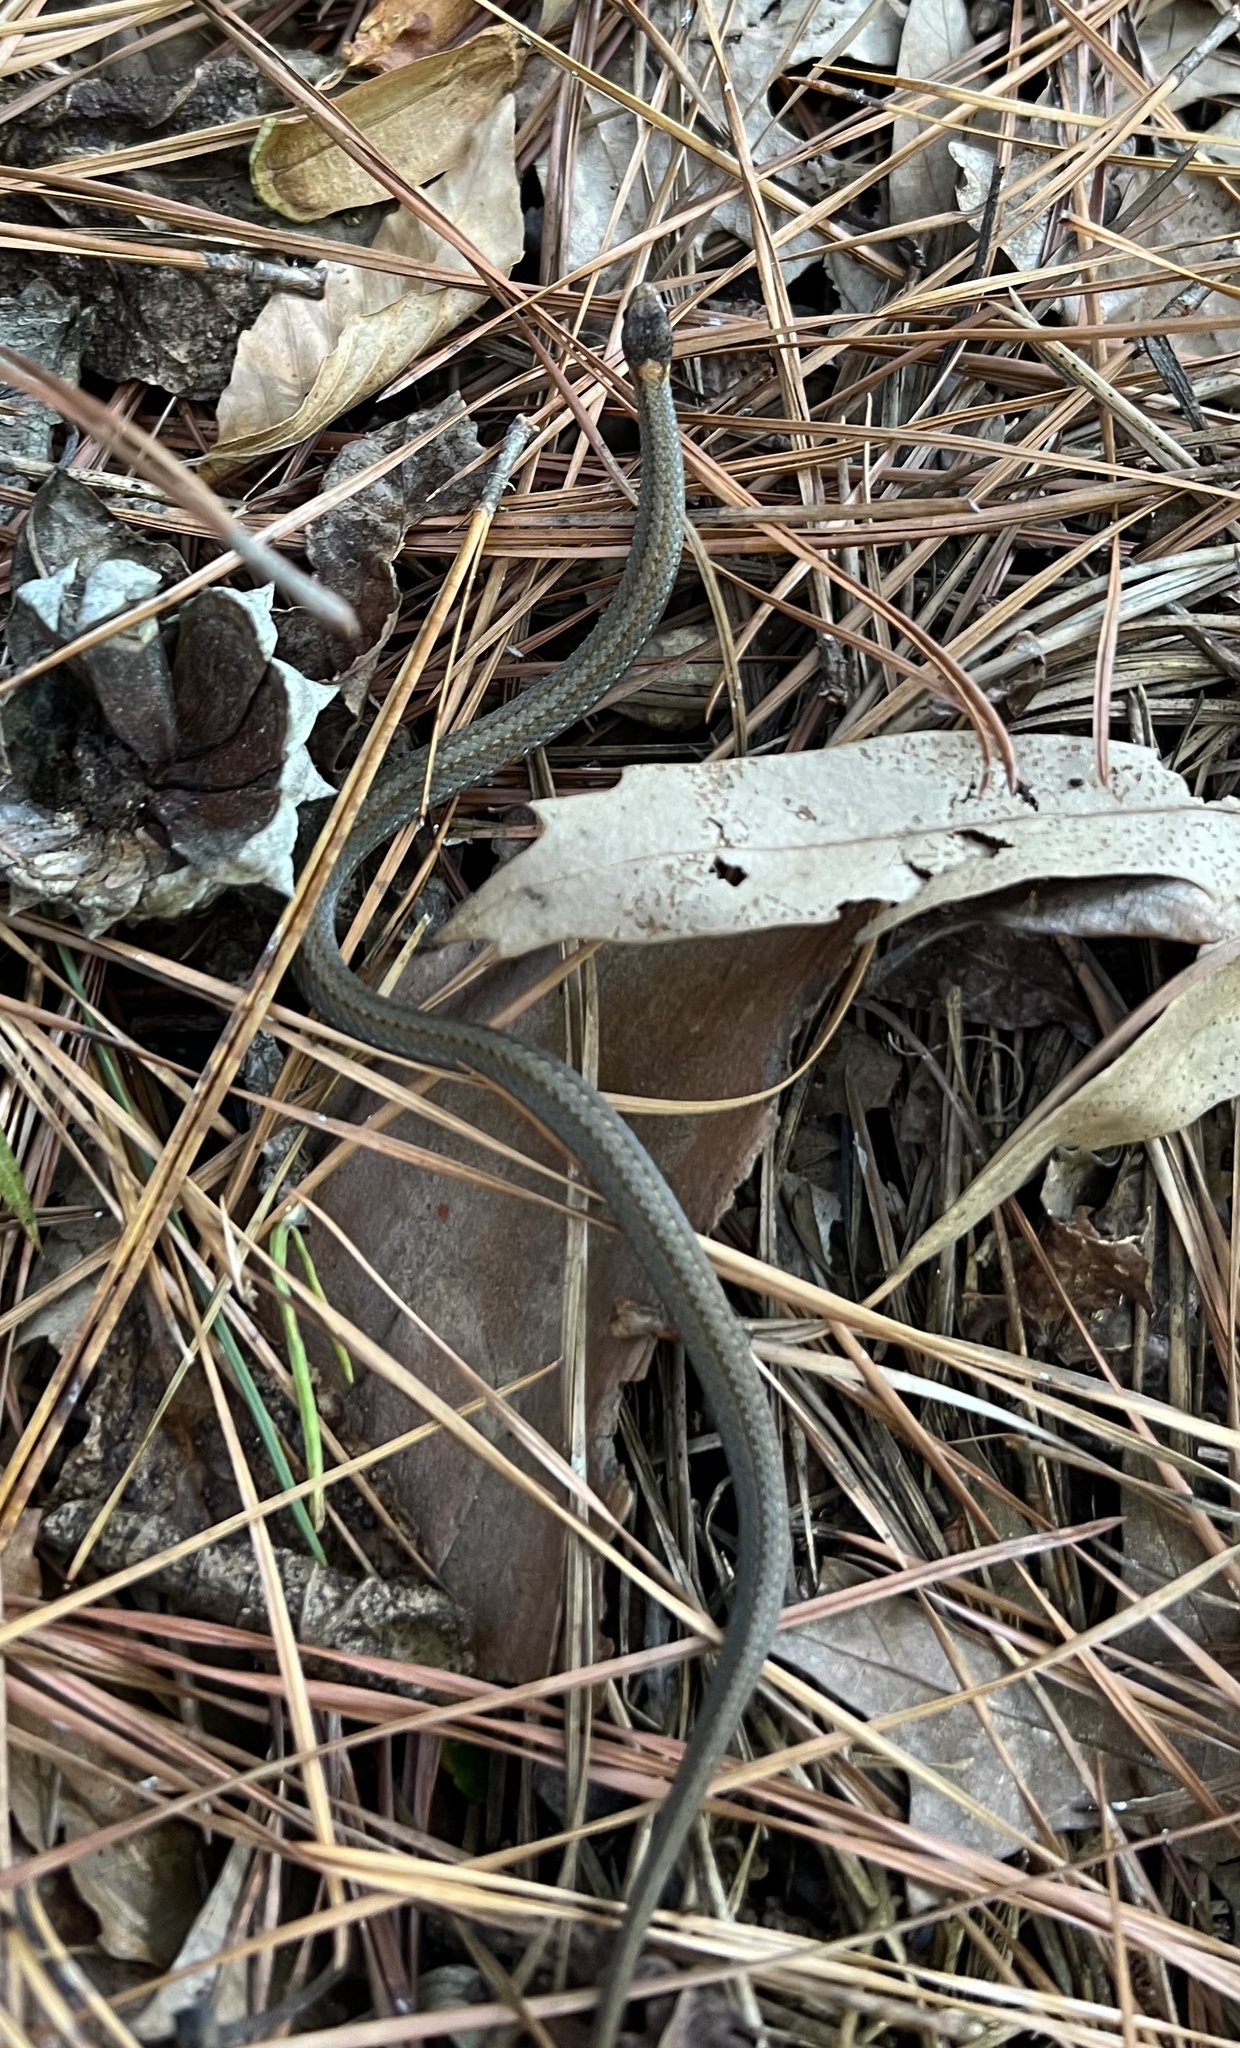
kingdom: Animalia
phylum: Chordata
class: Squamata
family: Colubridae
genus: Storeria
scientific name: Storeria occipitomaculata
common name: Redbelly snake
